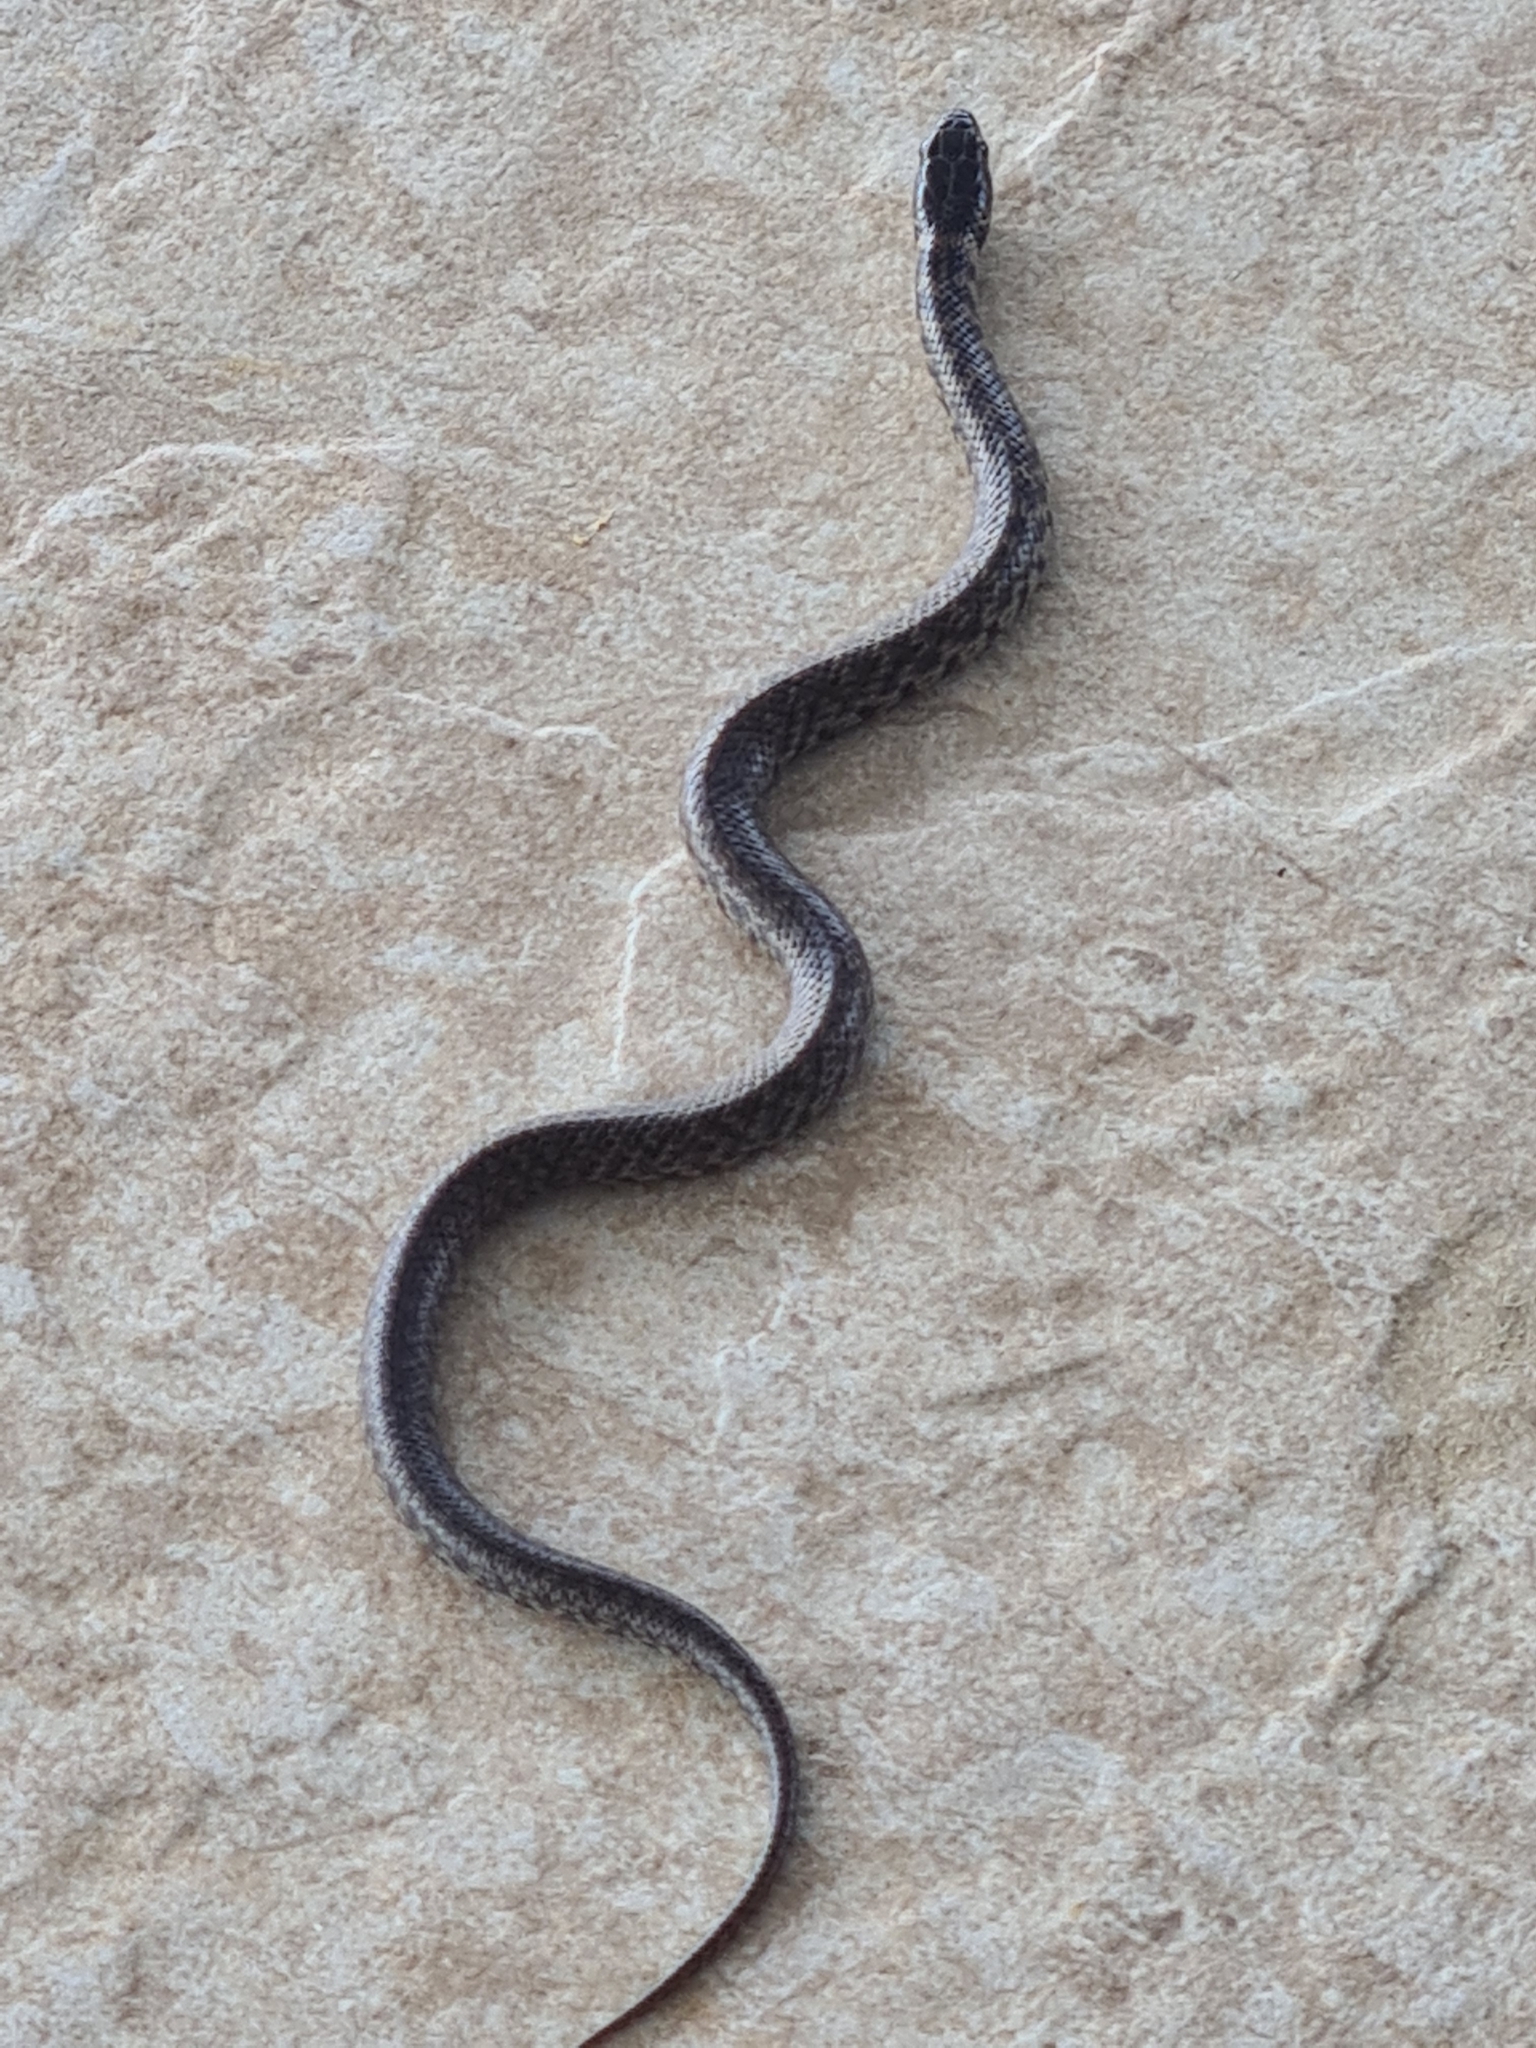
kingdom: Animalia
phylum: Chordata
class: Squamata
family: Colubridae
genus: Erythrolamprus
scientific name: Erythrolamprus cobella
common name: Mangrove snak
